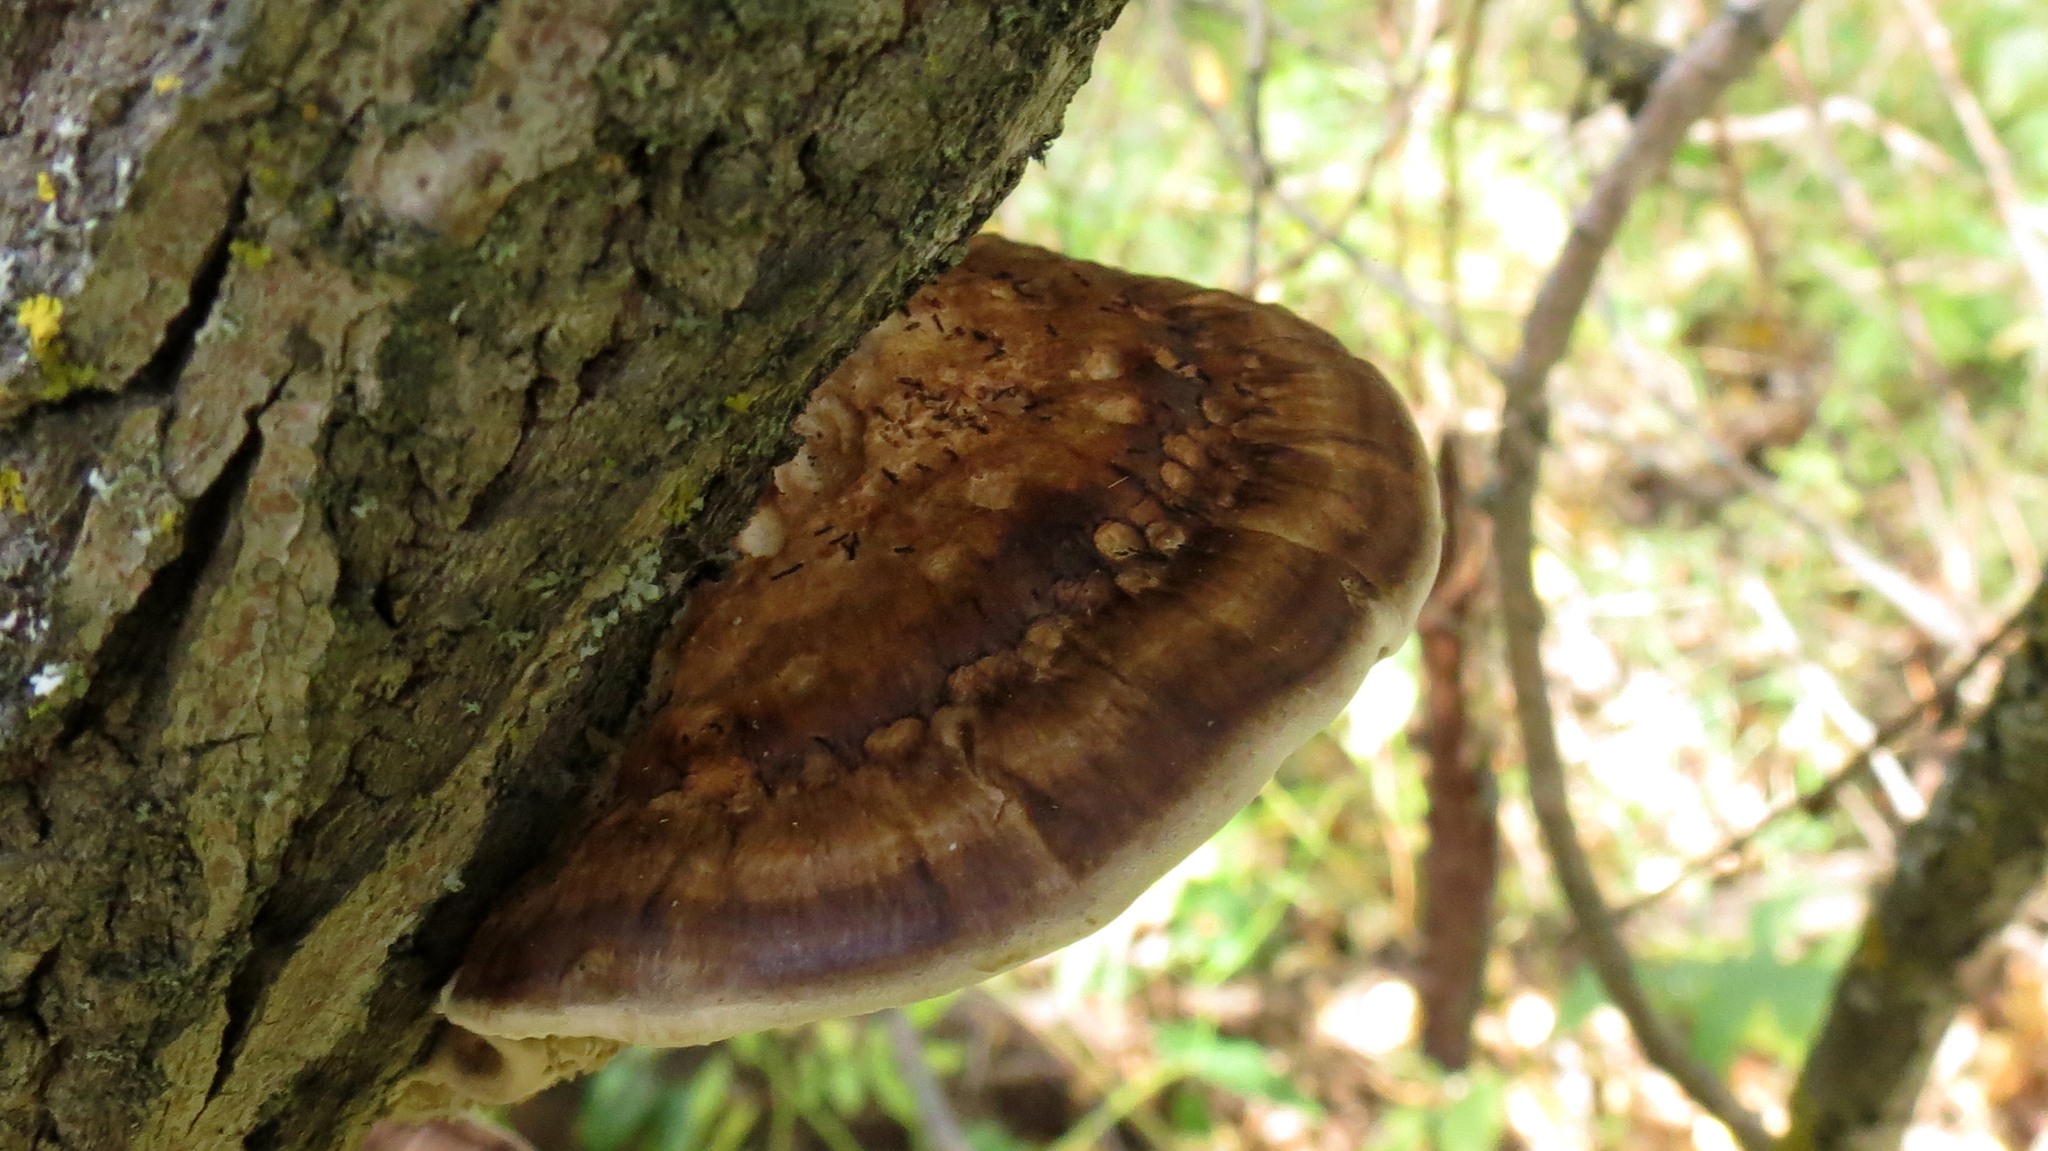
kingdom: Fungi
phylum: Basidiomycota
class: Agaricomycetes
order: Polyporales
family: Polyporaceae
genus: Daedaleopsis
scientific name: Daedaleopsis confragosa
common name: Blushing bracket
